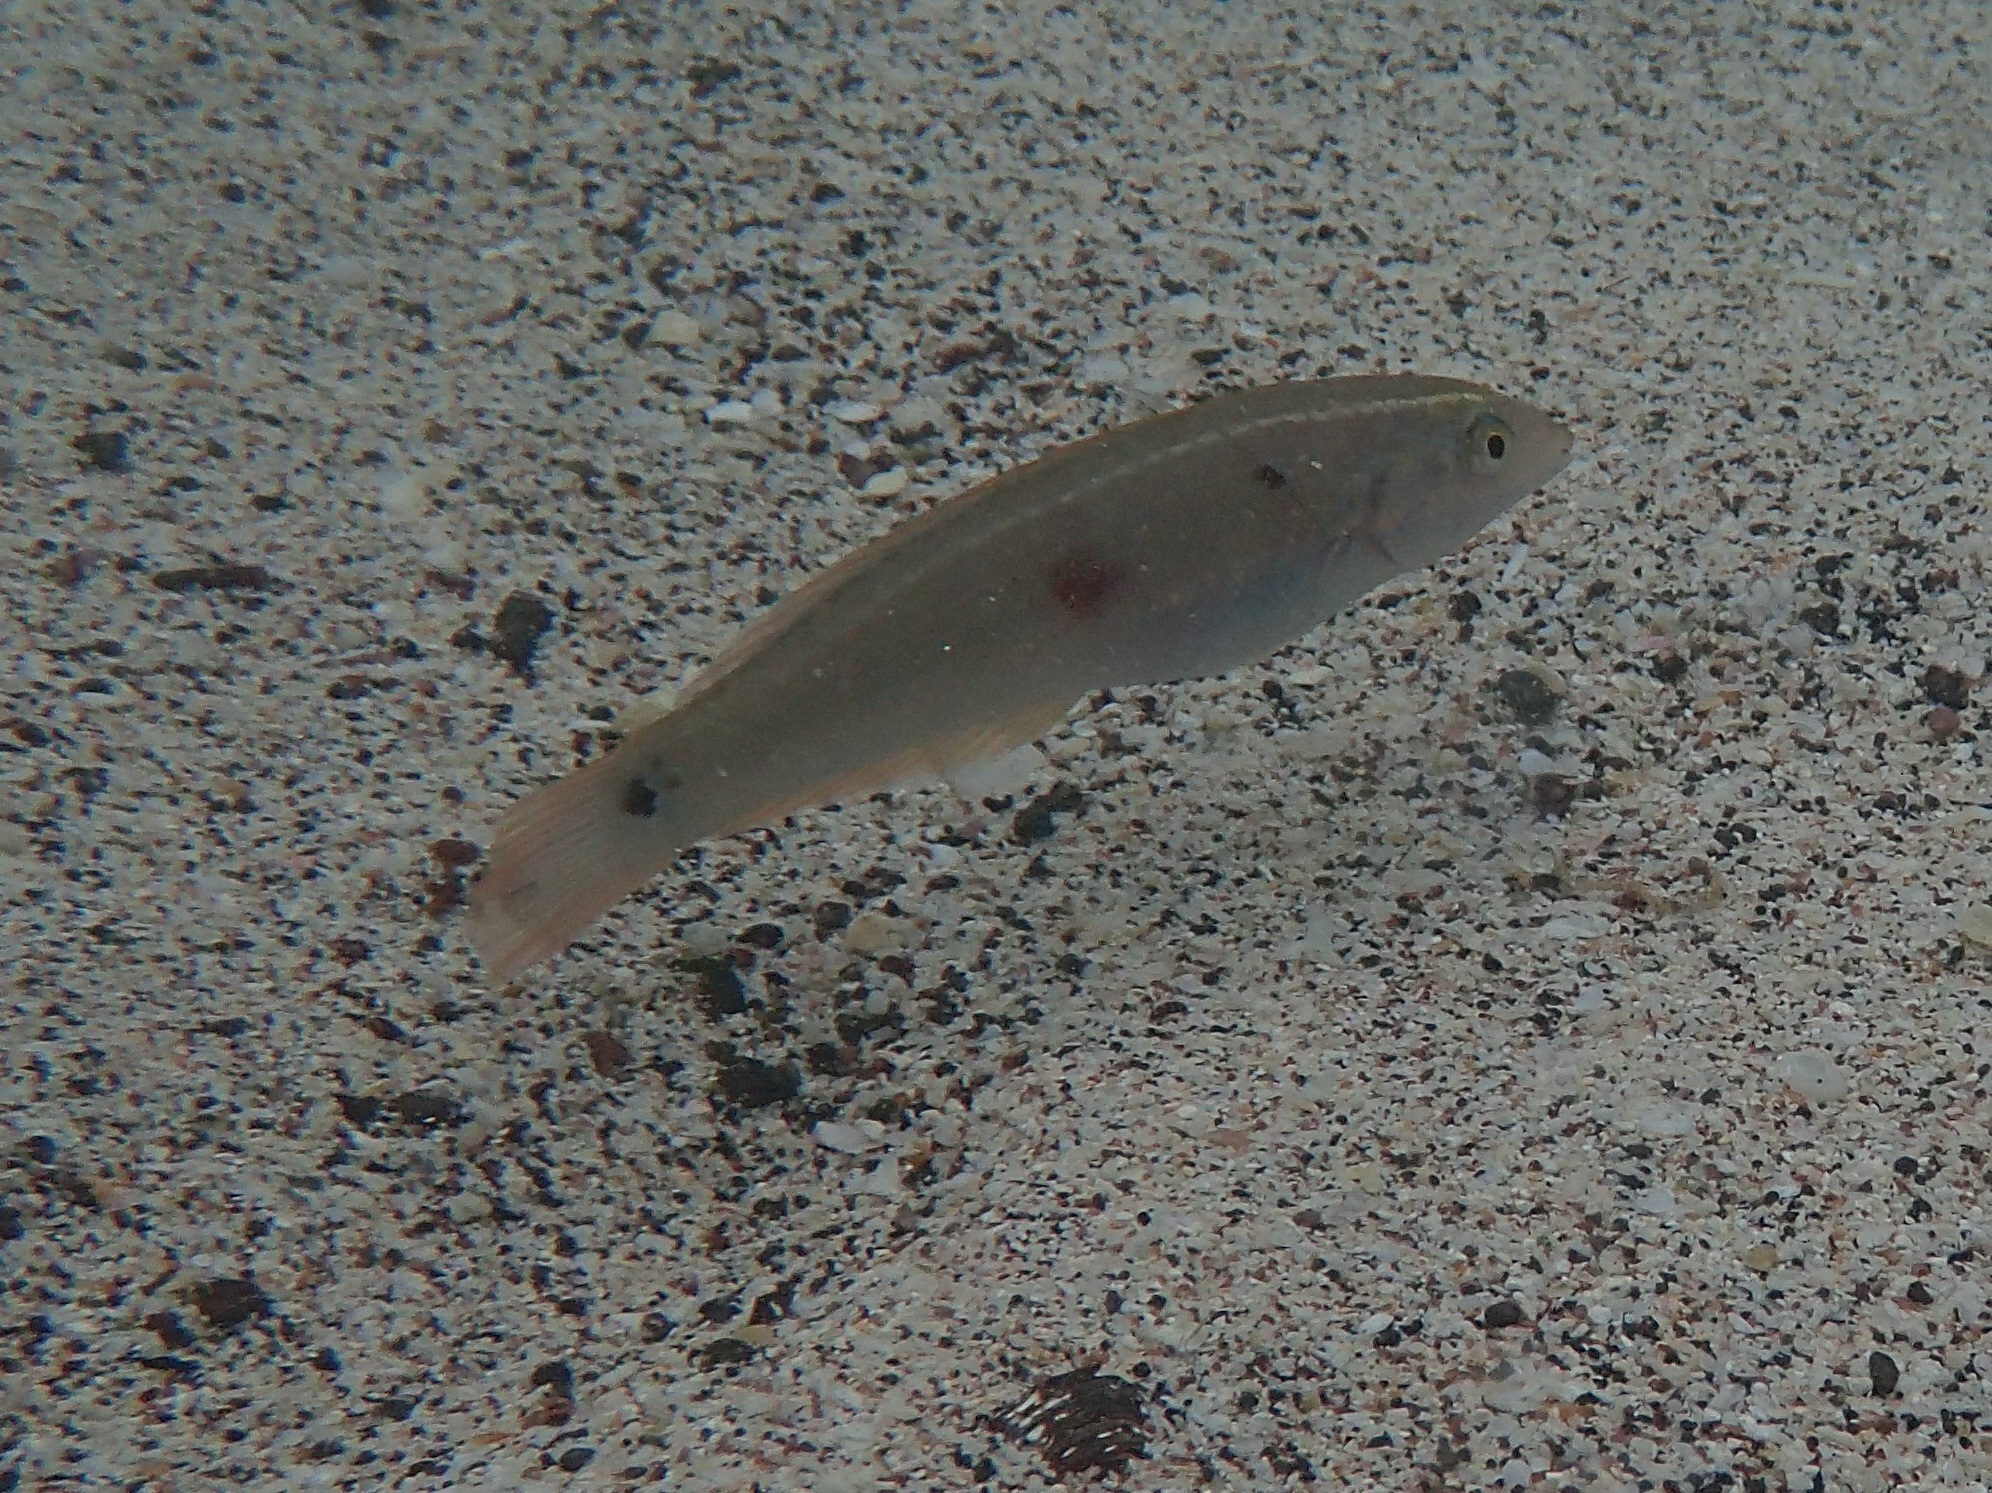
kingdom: Animalia
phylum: Chordata
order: Perciformes
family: Labridae
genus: Halichoeres
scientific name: Halichoeres dispilus
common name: Chameleon wrasse
